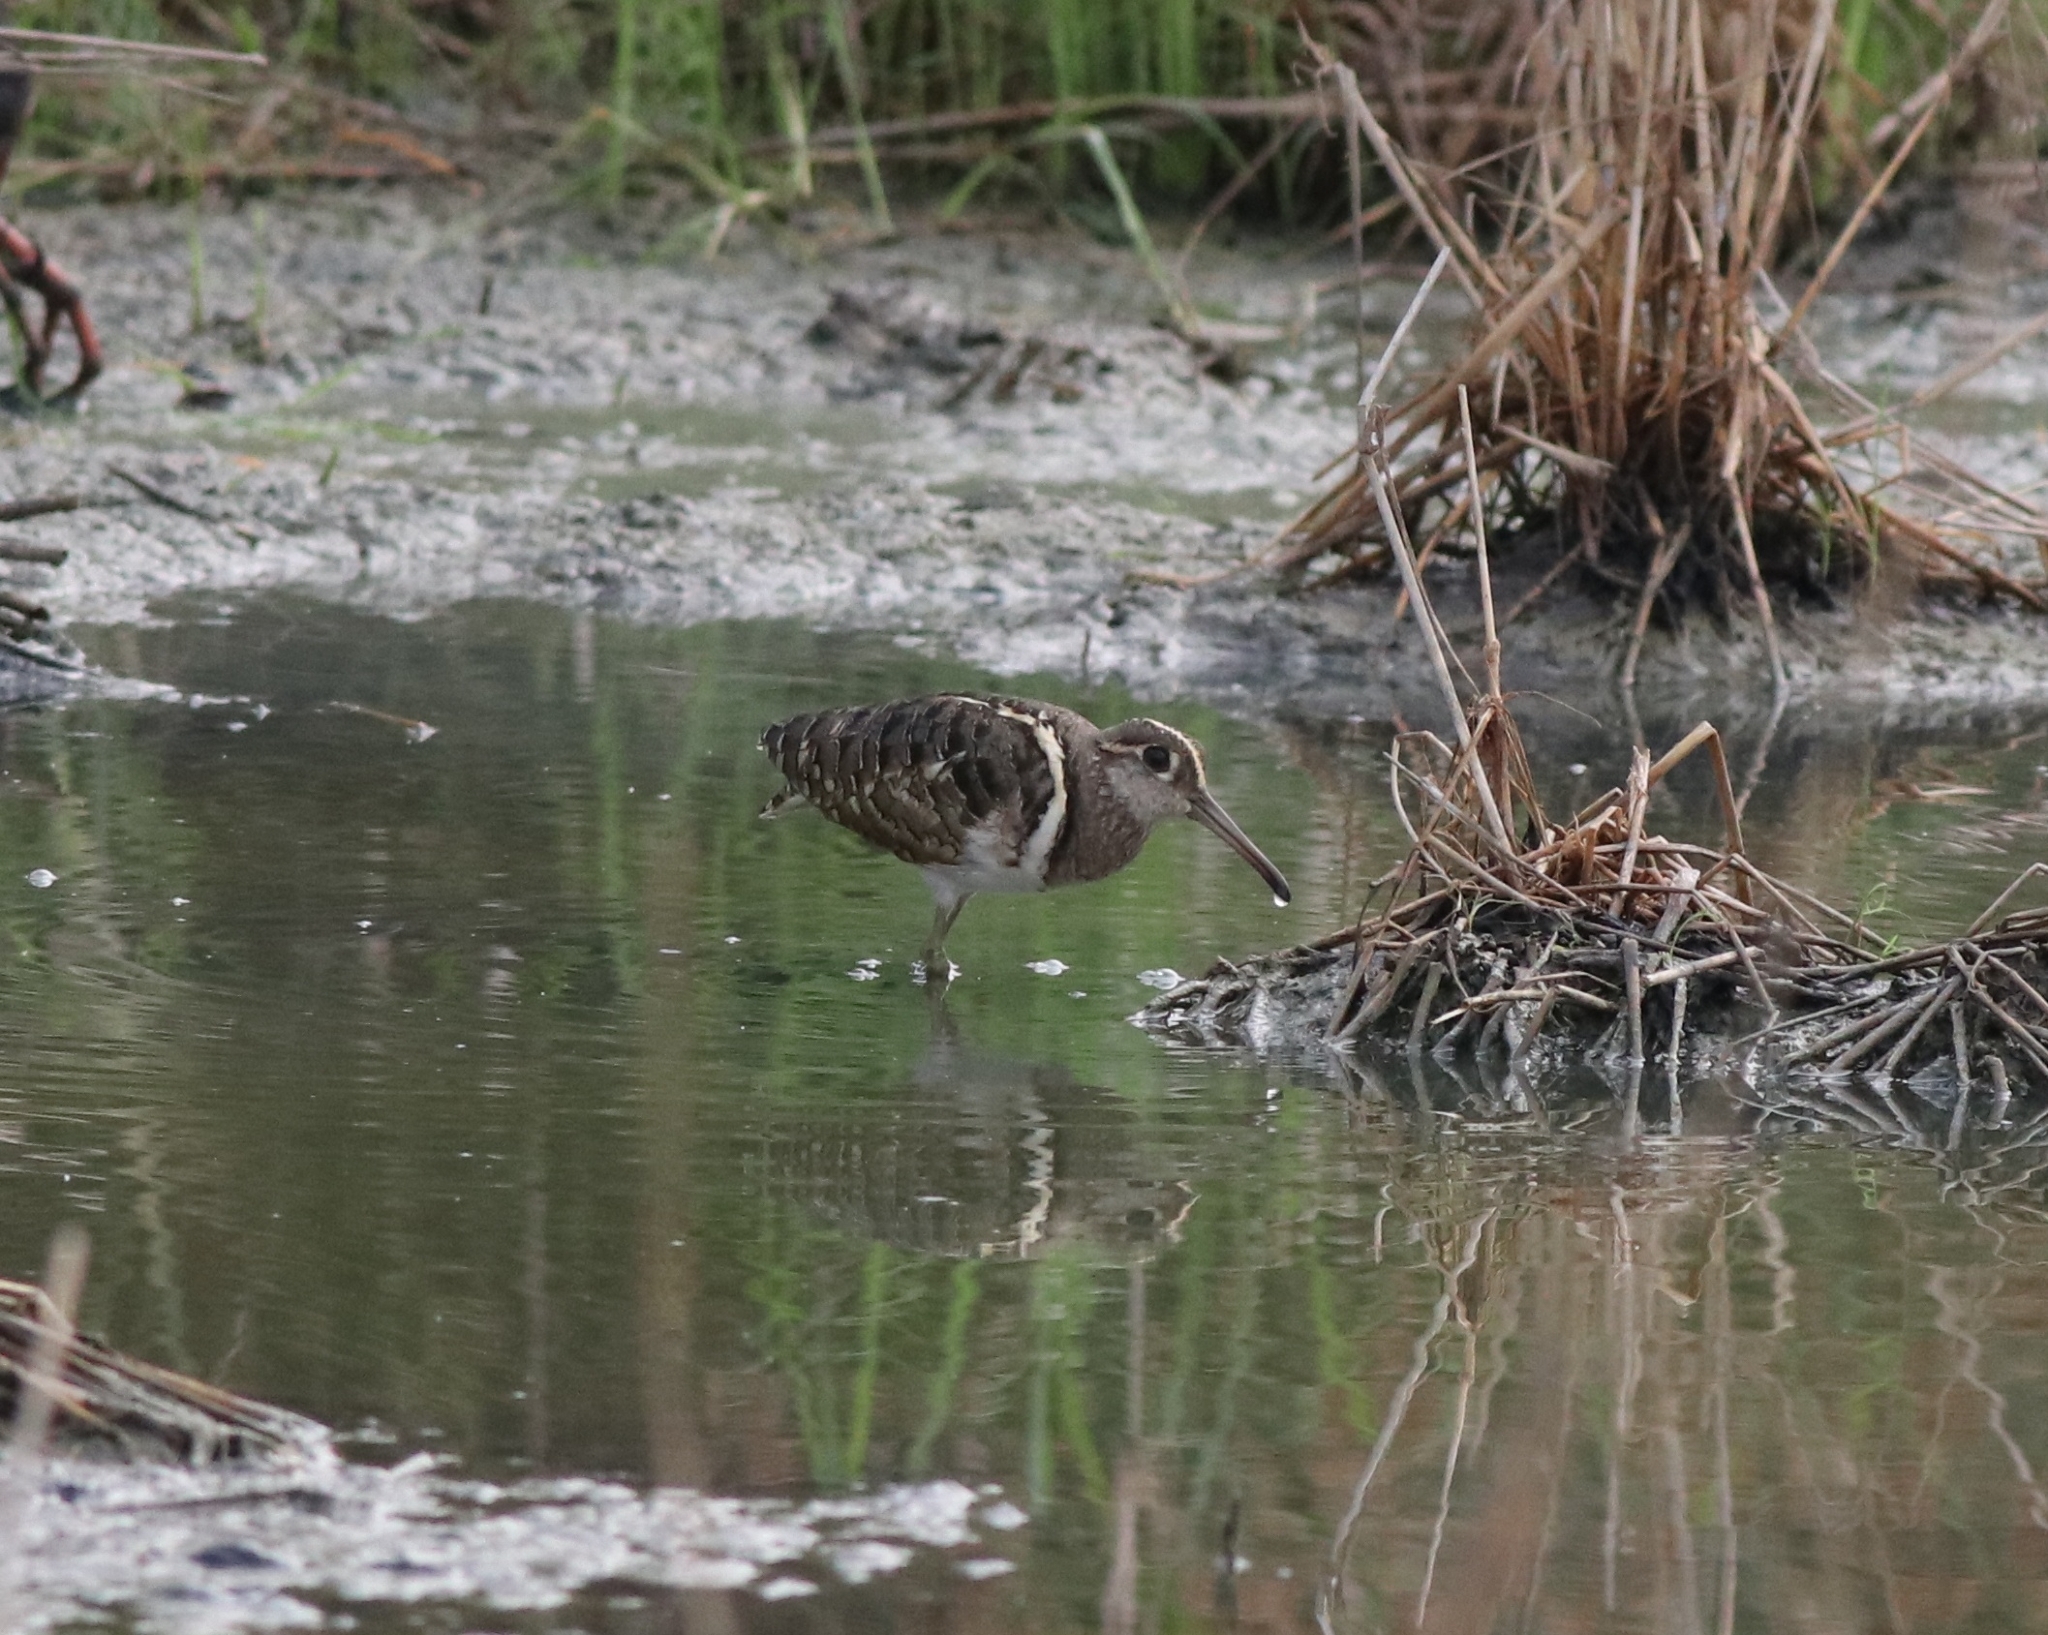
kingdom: Animalia
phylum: Chordata
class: Aves
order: Charadriiformes
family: Rostratulidae
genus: Rostratula
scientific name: Rostratula benghalensis
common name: Greater painted-snipe
